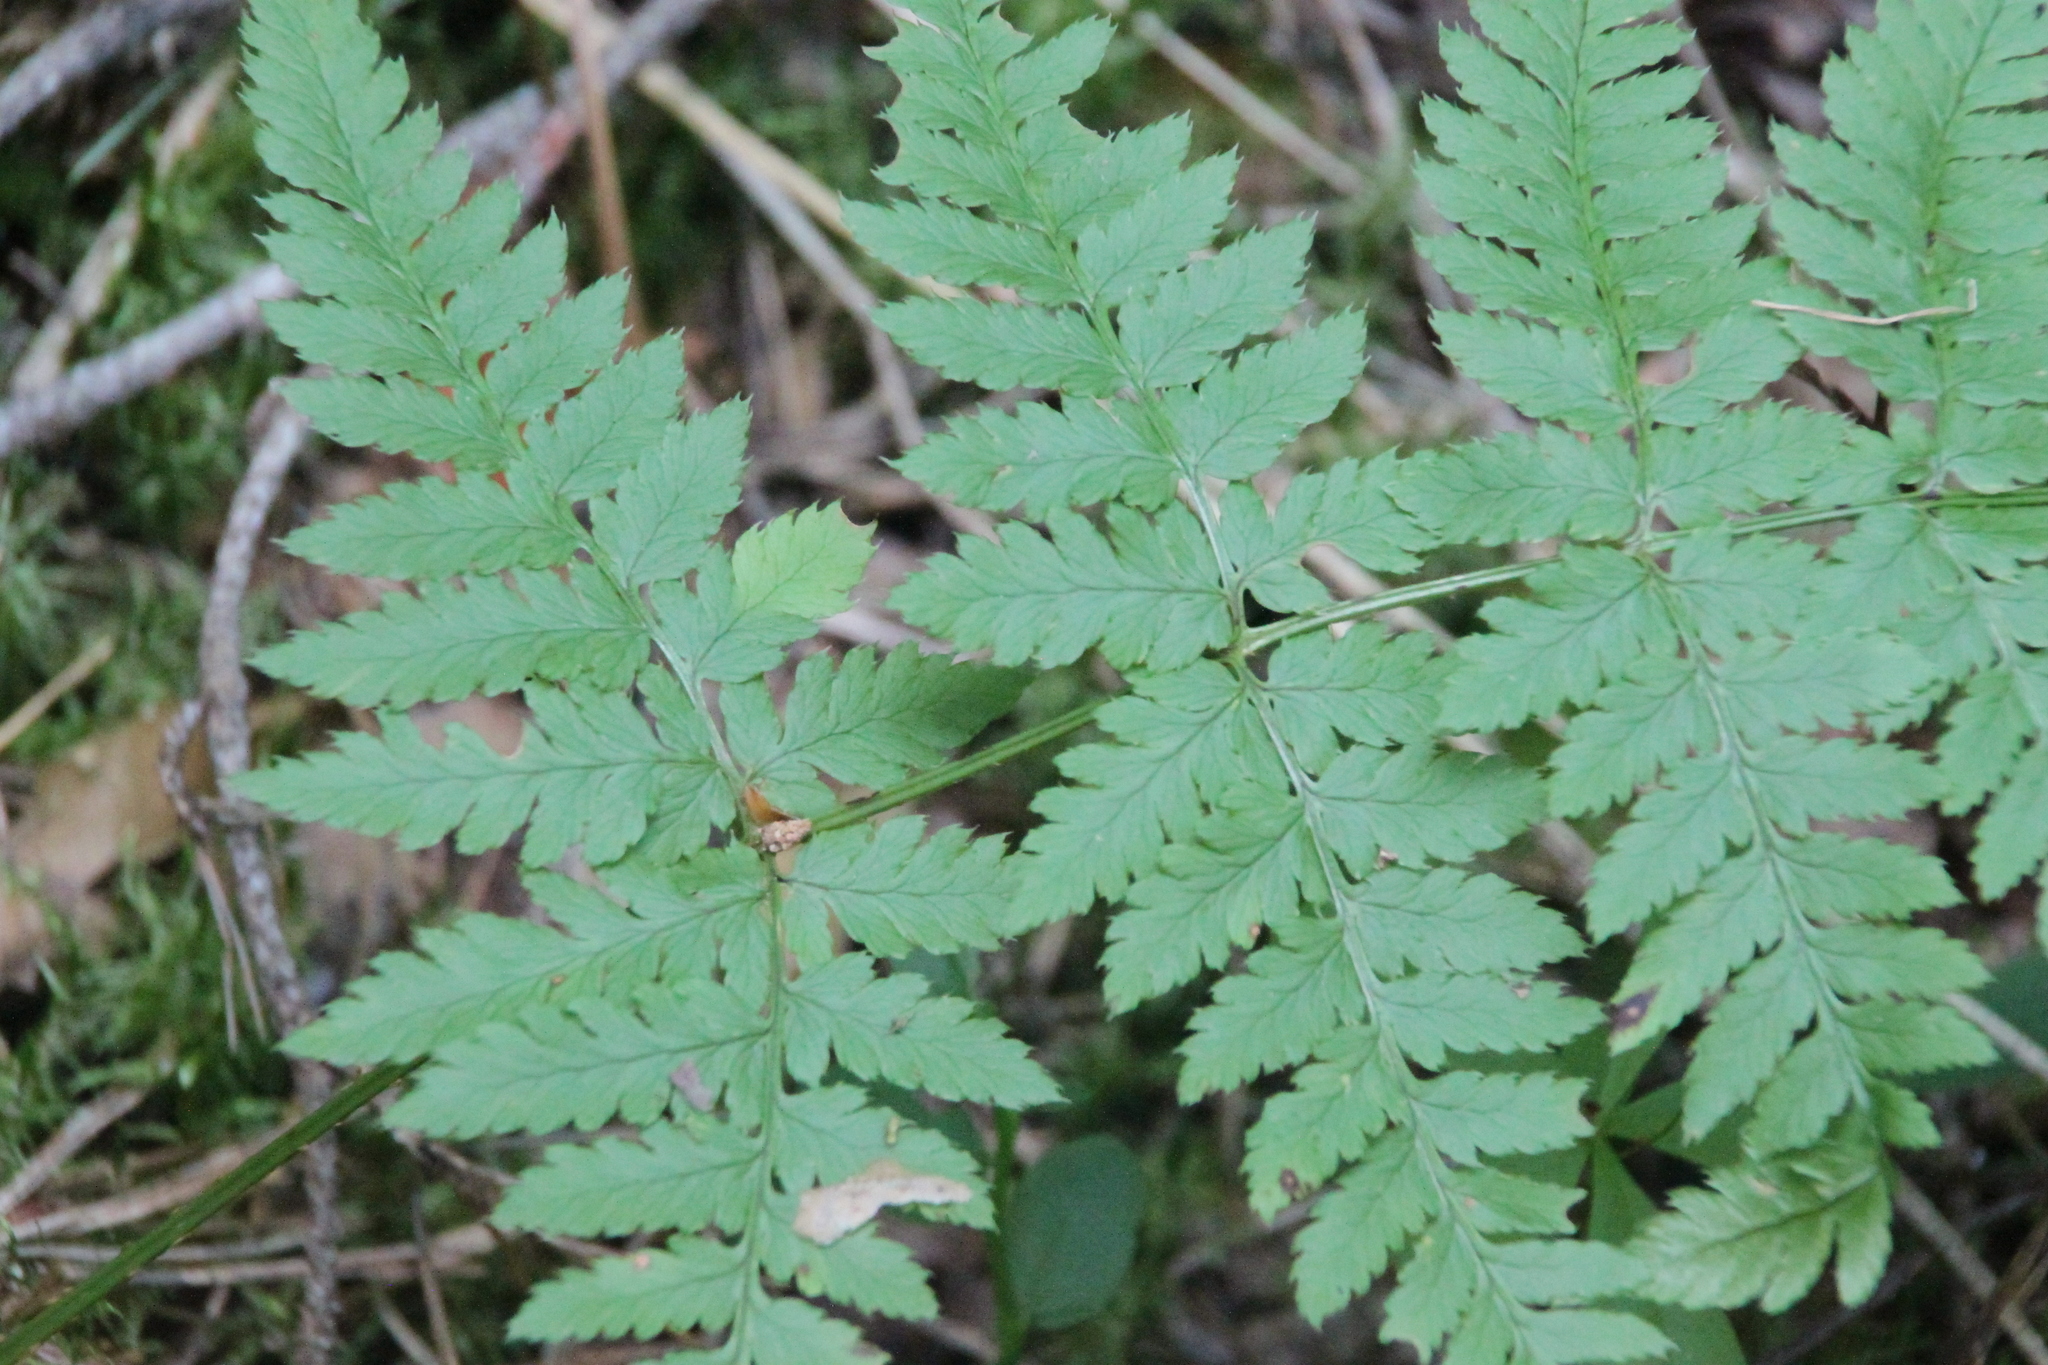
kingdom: Plantae
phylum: Tracheophyta
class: Polypodiopsida
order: Polypodiales
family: Dryopteridaceae
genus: Dryopteris
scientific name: Dryopteris carthusiana
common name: Narrow buckler-fern
